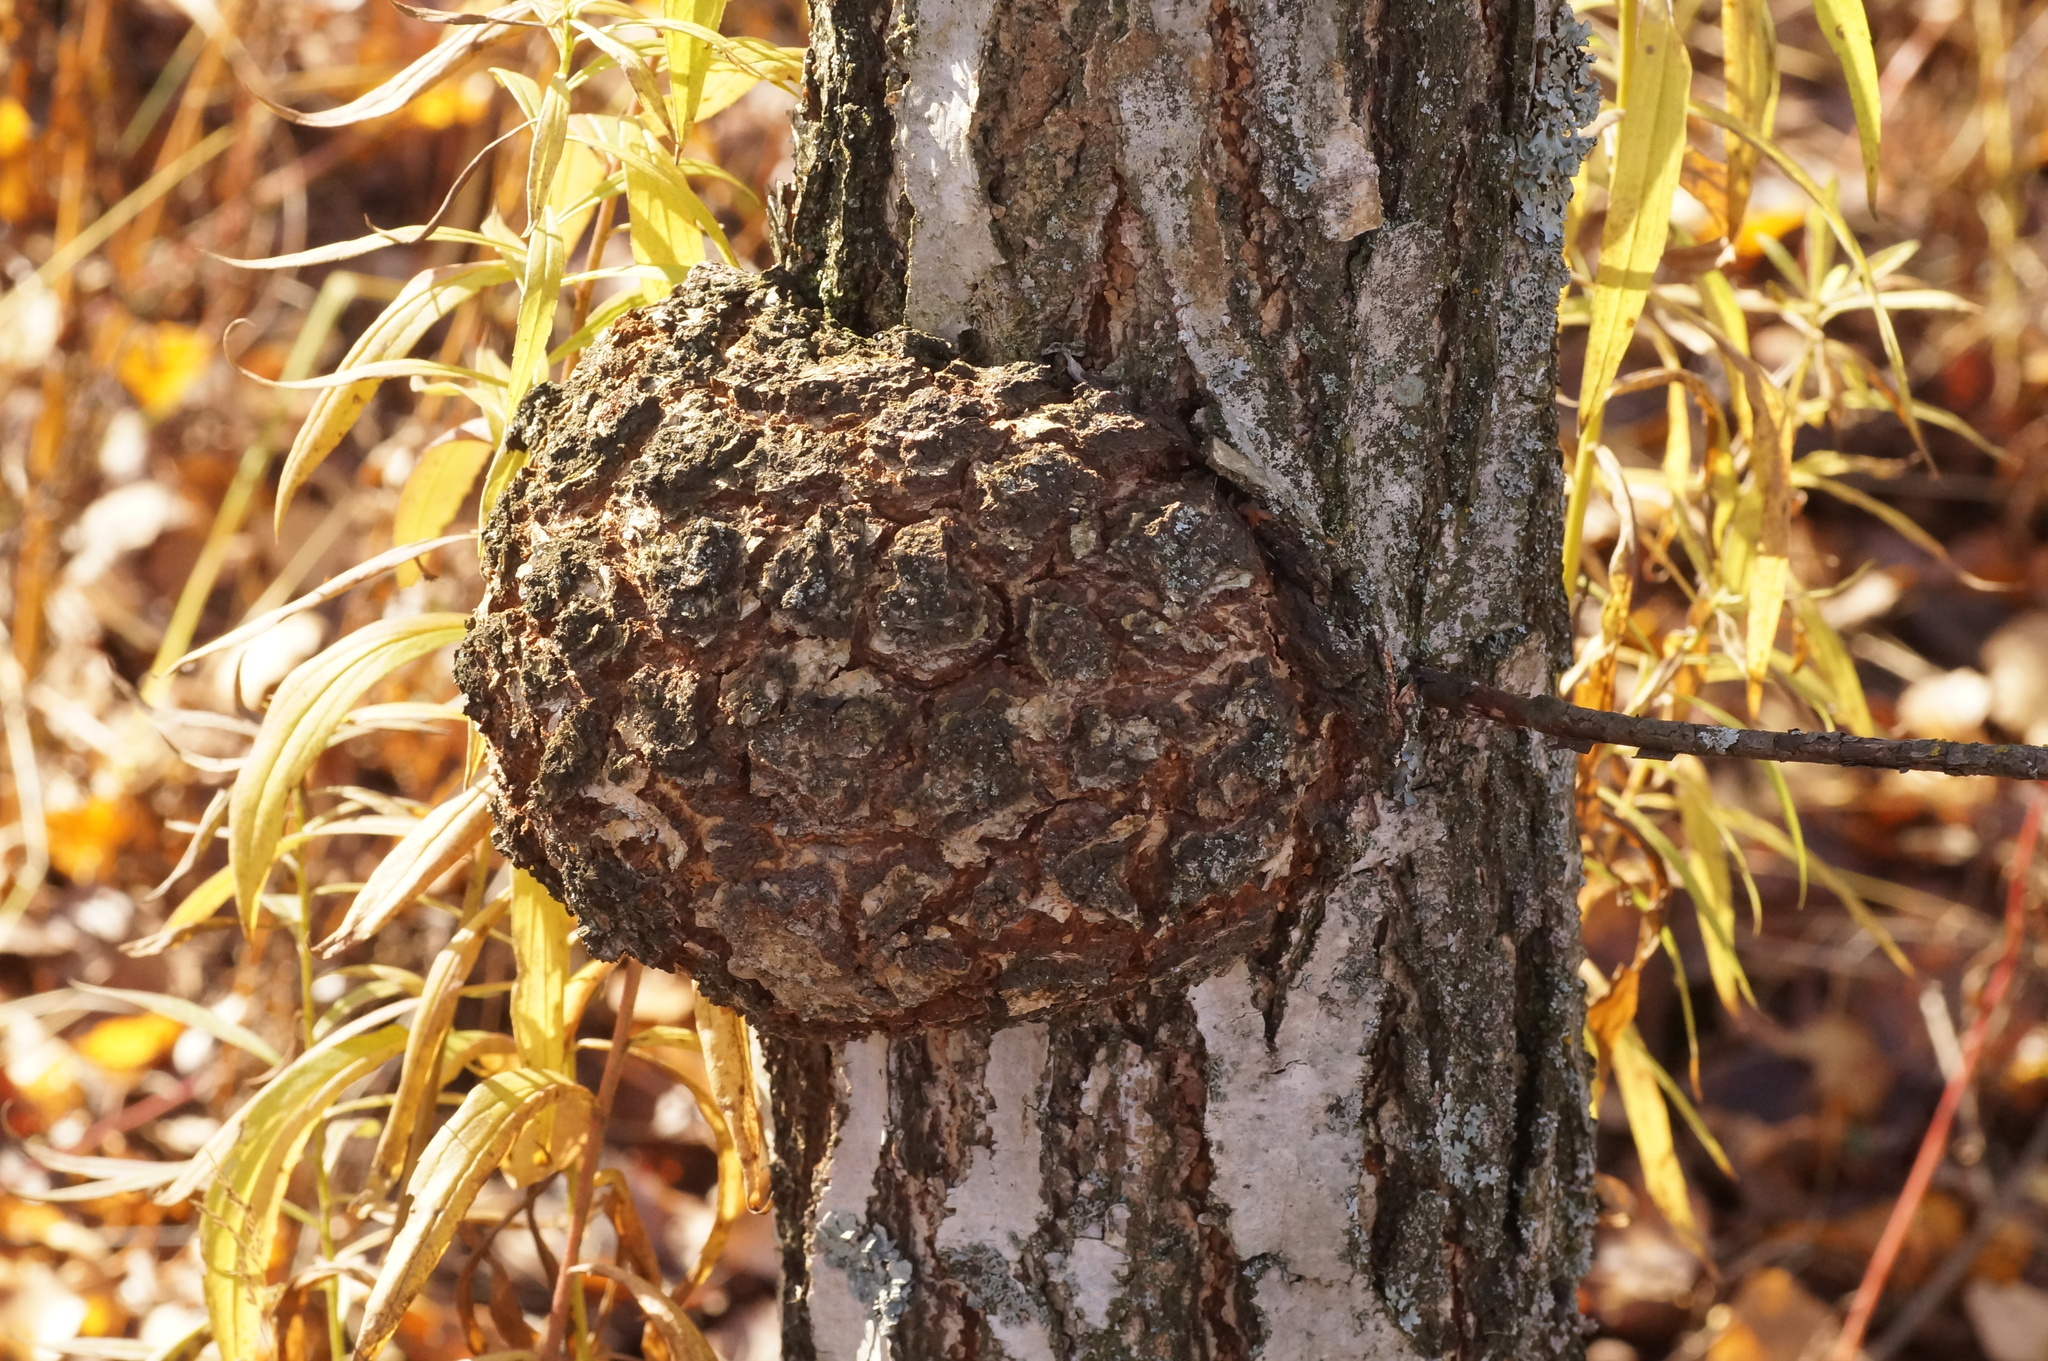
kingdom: Bacteria
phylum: Proteobacteria
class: Alphaproteobacteria
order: Rhizobiales
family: Rhizobiaceae
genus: Rhizobium
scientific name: Rhizobium Agrobacterium radiobacter
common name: Bacterial crown gall
